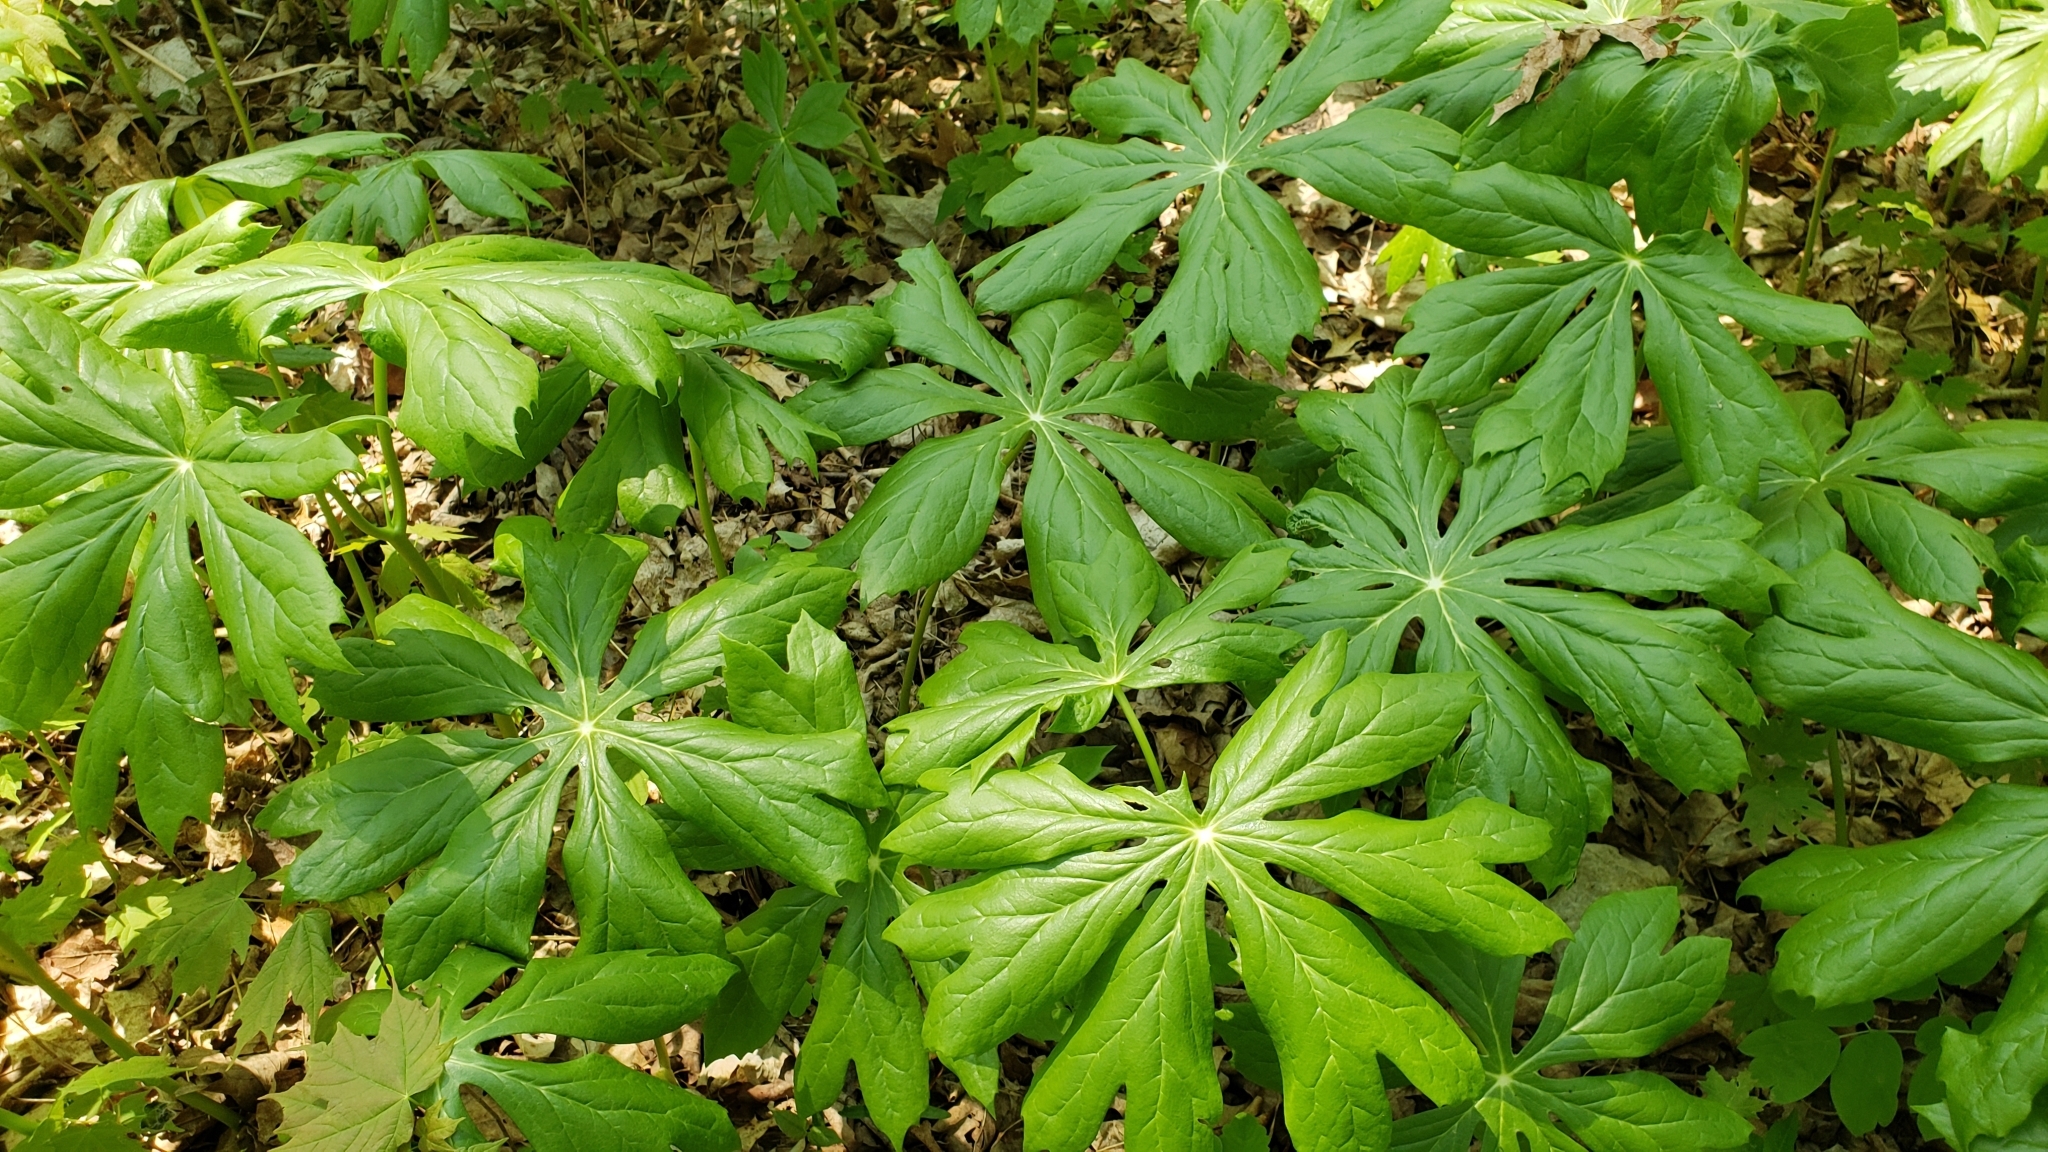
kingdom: Plantae
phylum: Tracheophyta
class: Magnoliopsida
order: Ranunculales
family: Berberidaceae
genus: Podophyllum
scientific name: Podophyllum peltatum
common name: Wild mandrake
